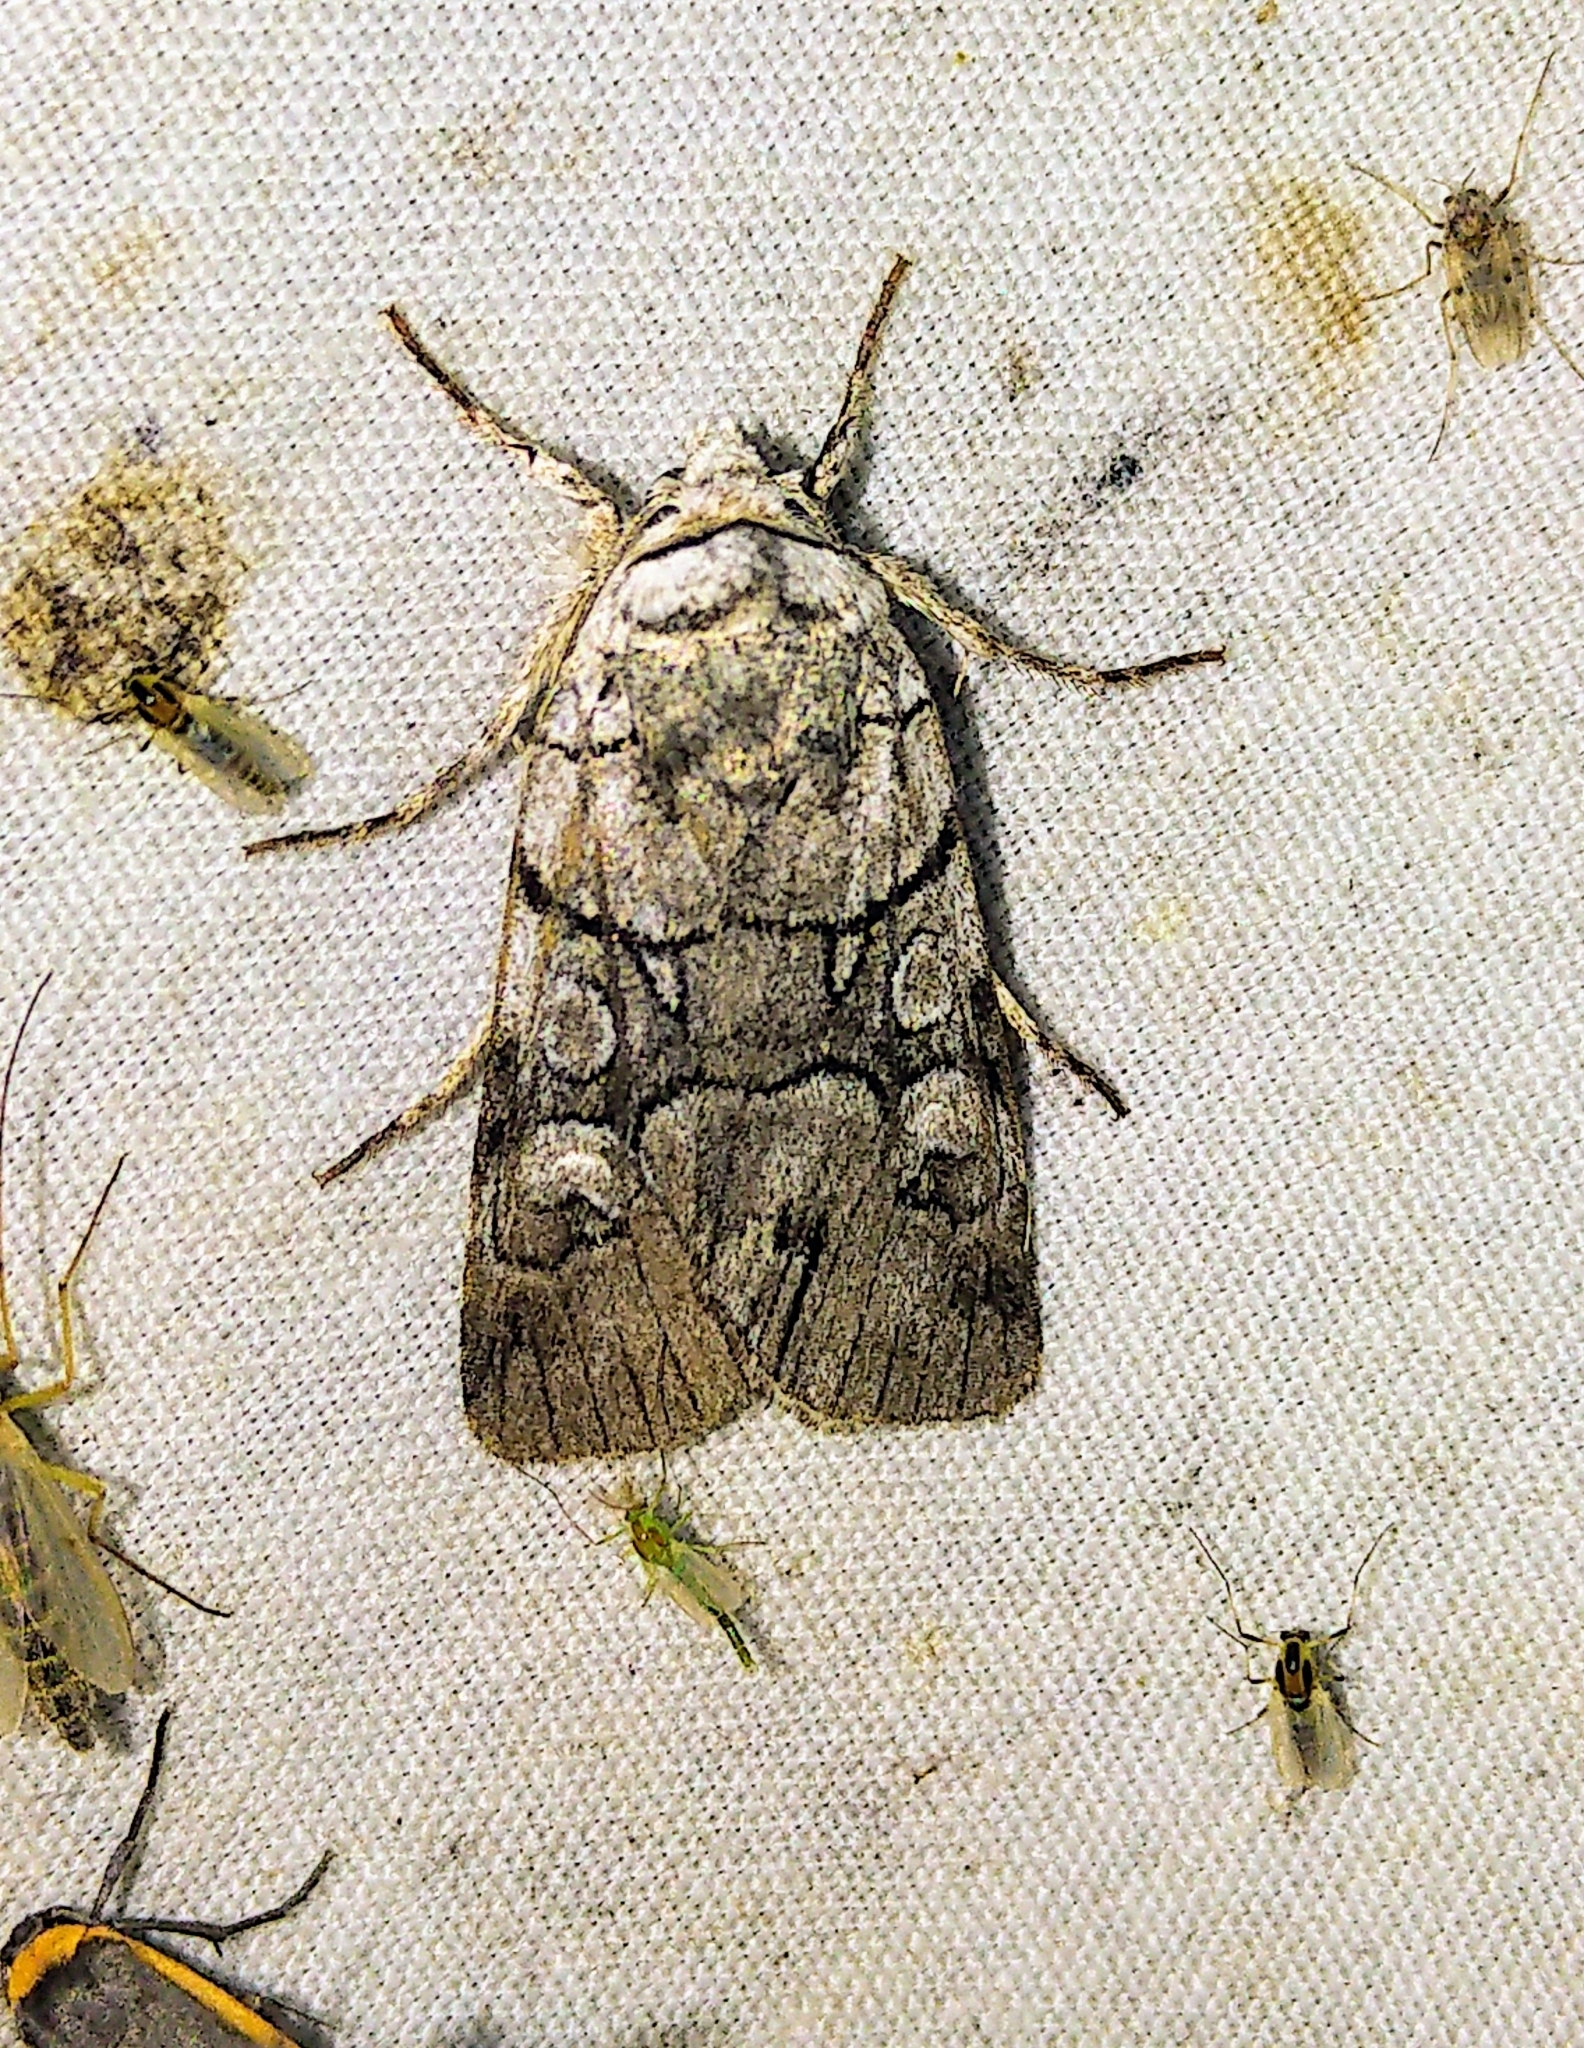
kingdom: Animalia
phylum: Arthropoda
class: Insecta
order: Lepidoptera
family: Noctuidae
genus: Sympistis
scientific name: Sympistis chionanthi
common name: Fringe-tree sallow
